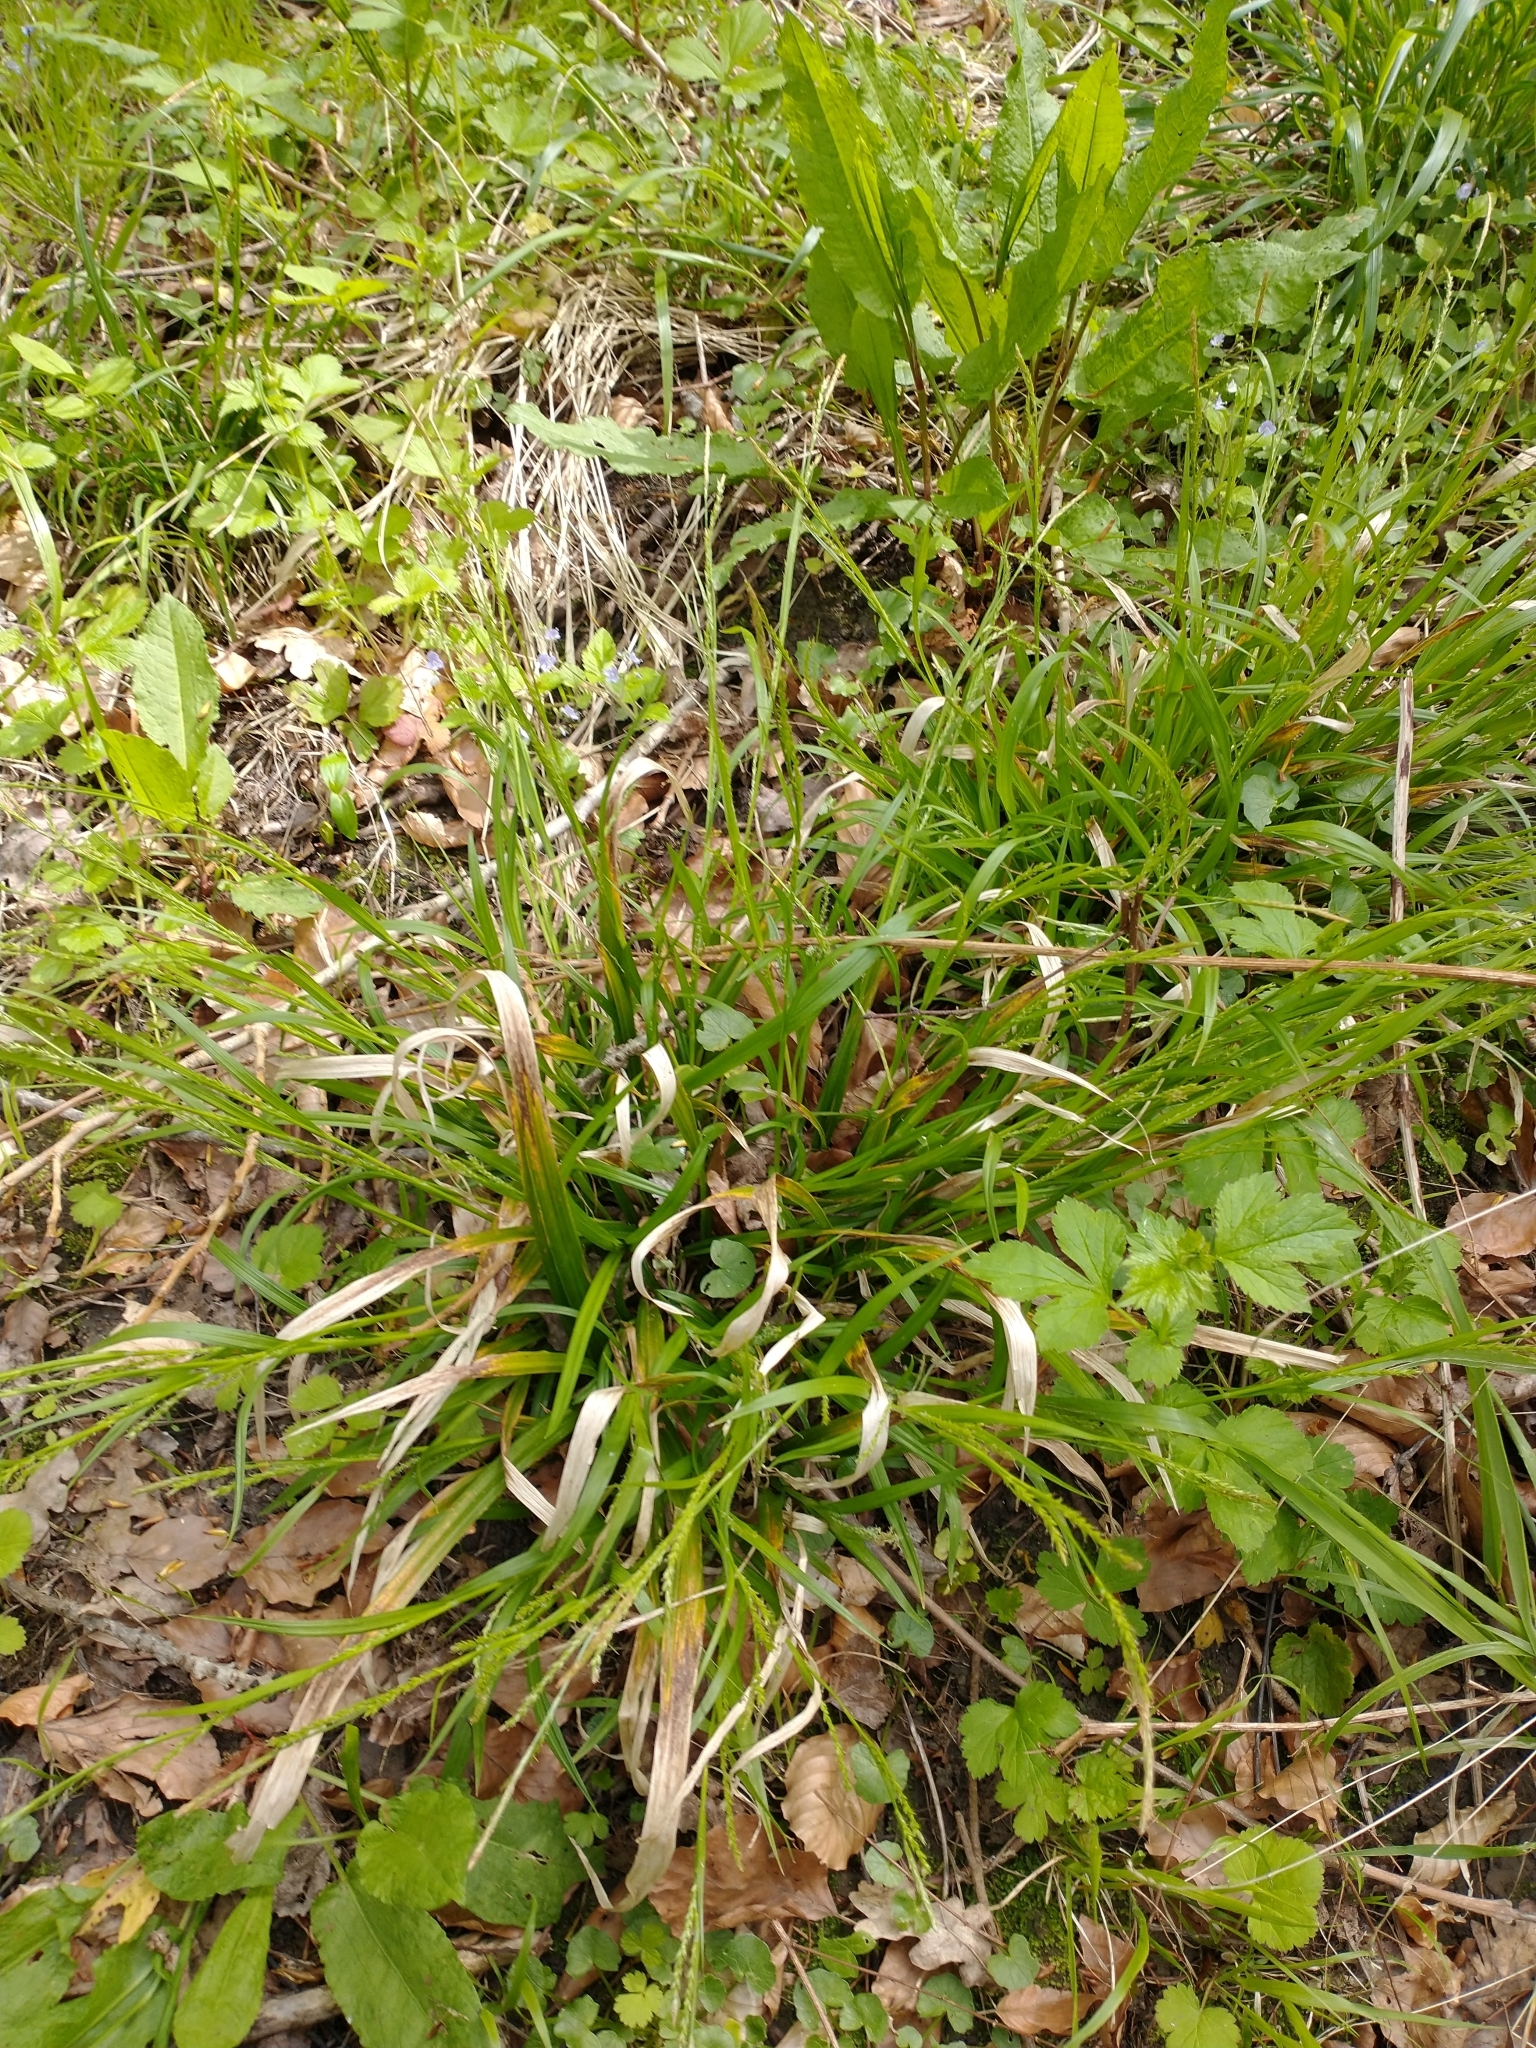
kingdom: Plantae
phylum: Tracheophyta
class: Liliopsida
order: Poales
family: Cyperaceae
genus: Carex
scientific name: Carex strigosa
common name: Thin-spiked wood-sedge
